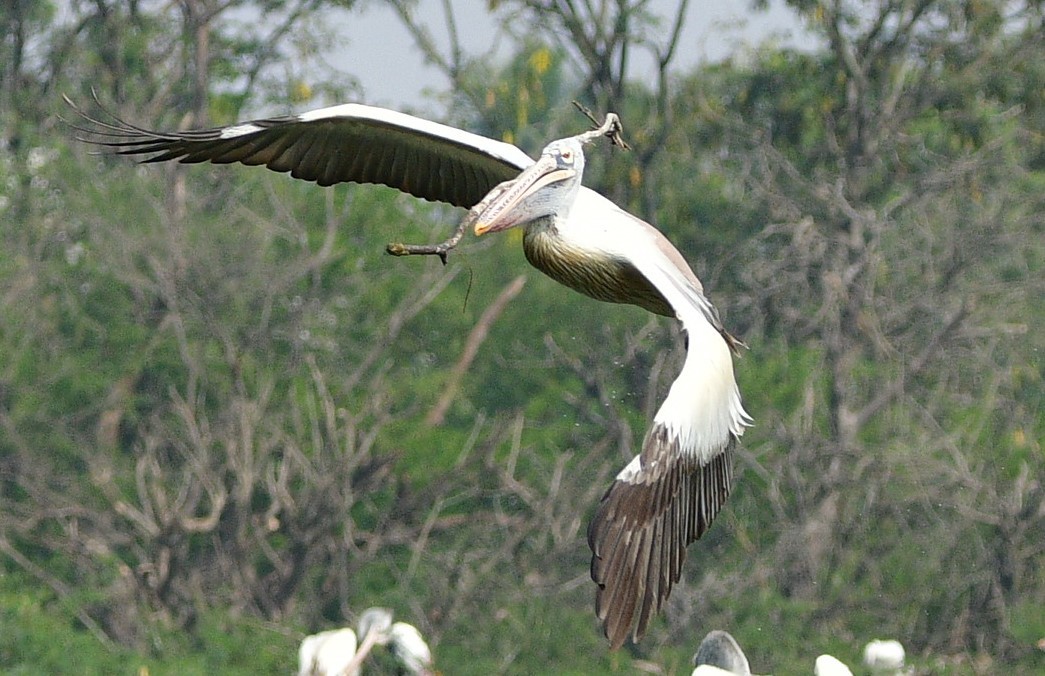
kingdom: Animalia
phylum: Chordata
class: Aves
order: Pelecaniformes
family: Pelecanidae
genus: Pelecanus
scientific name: Pelecanus philippensis
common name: Spot-billed pelican
